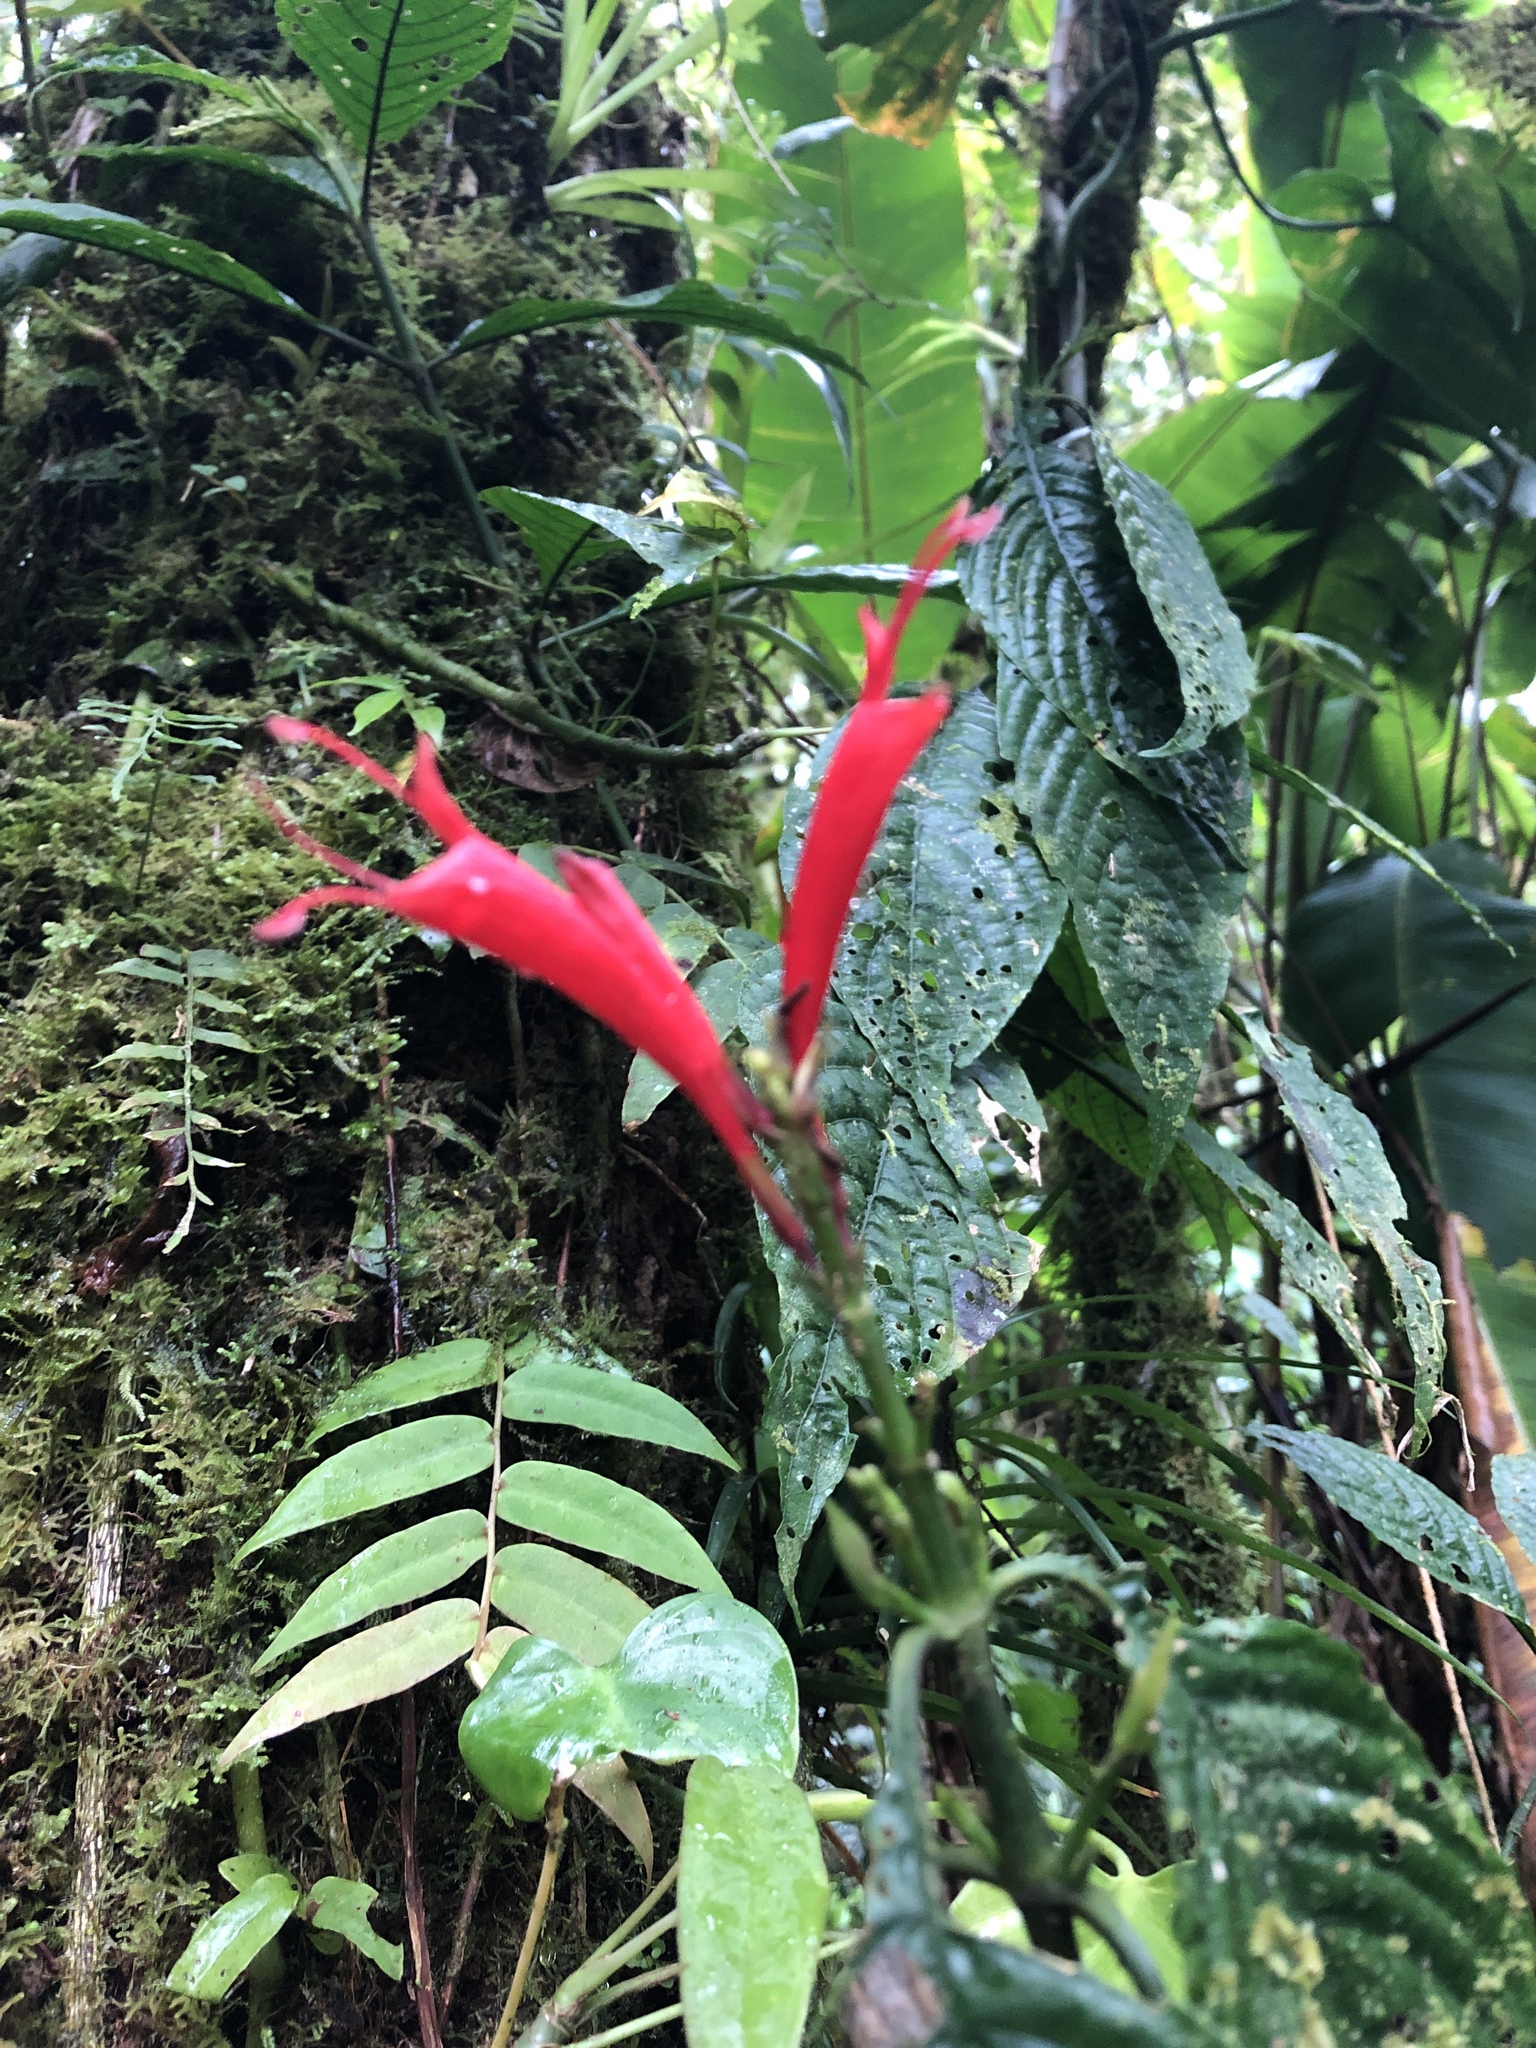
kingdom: Plantae
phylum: Tracheophyta
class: Magnoliopsida
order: Lamiales
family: Acanthaceae
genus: Stenostephanus
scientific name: Stenostephanus leiorhachis
